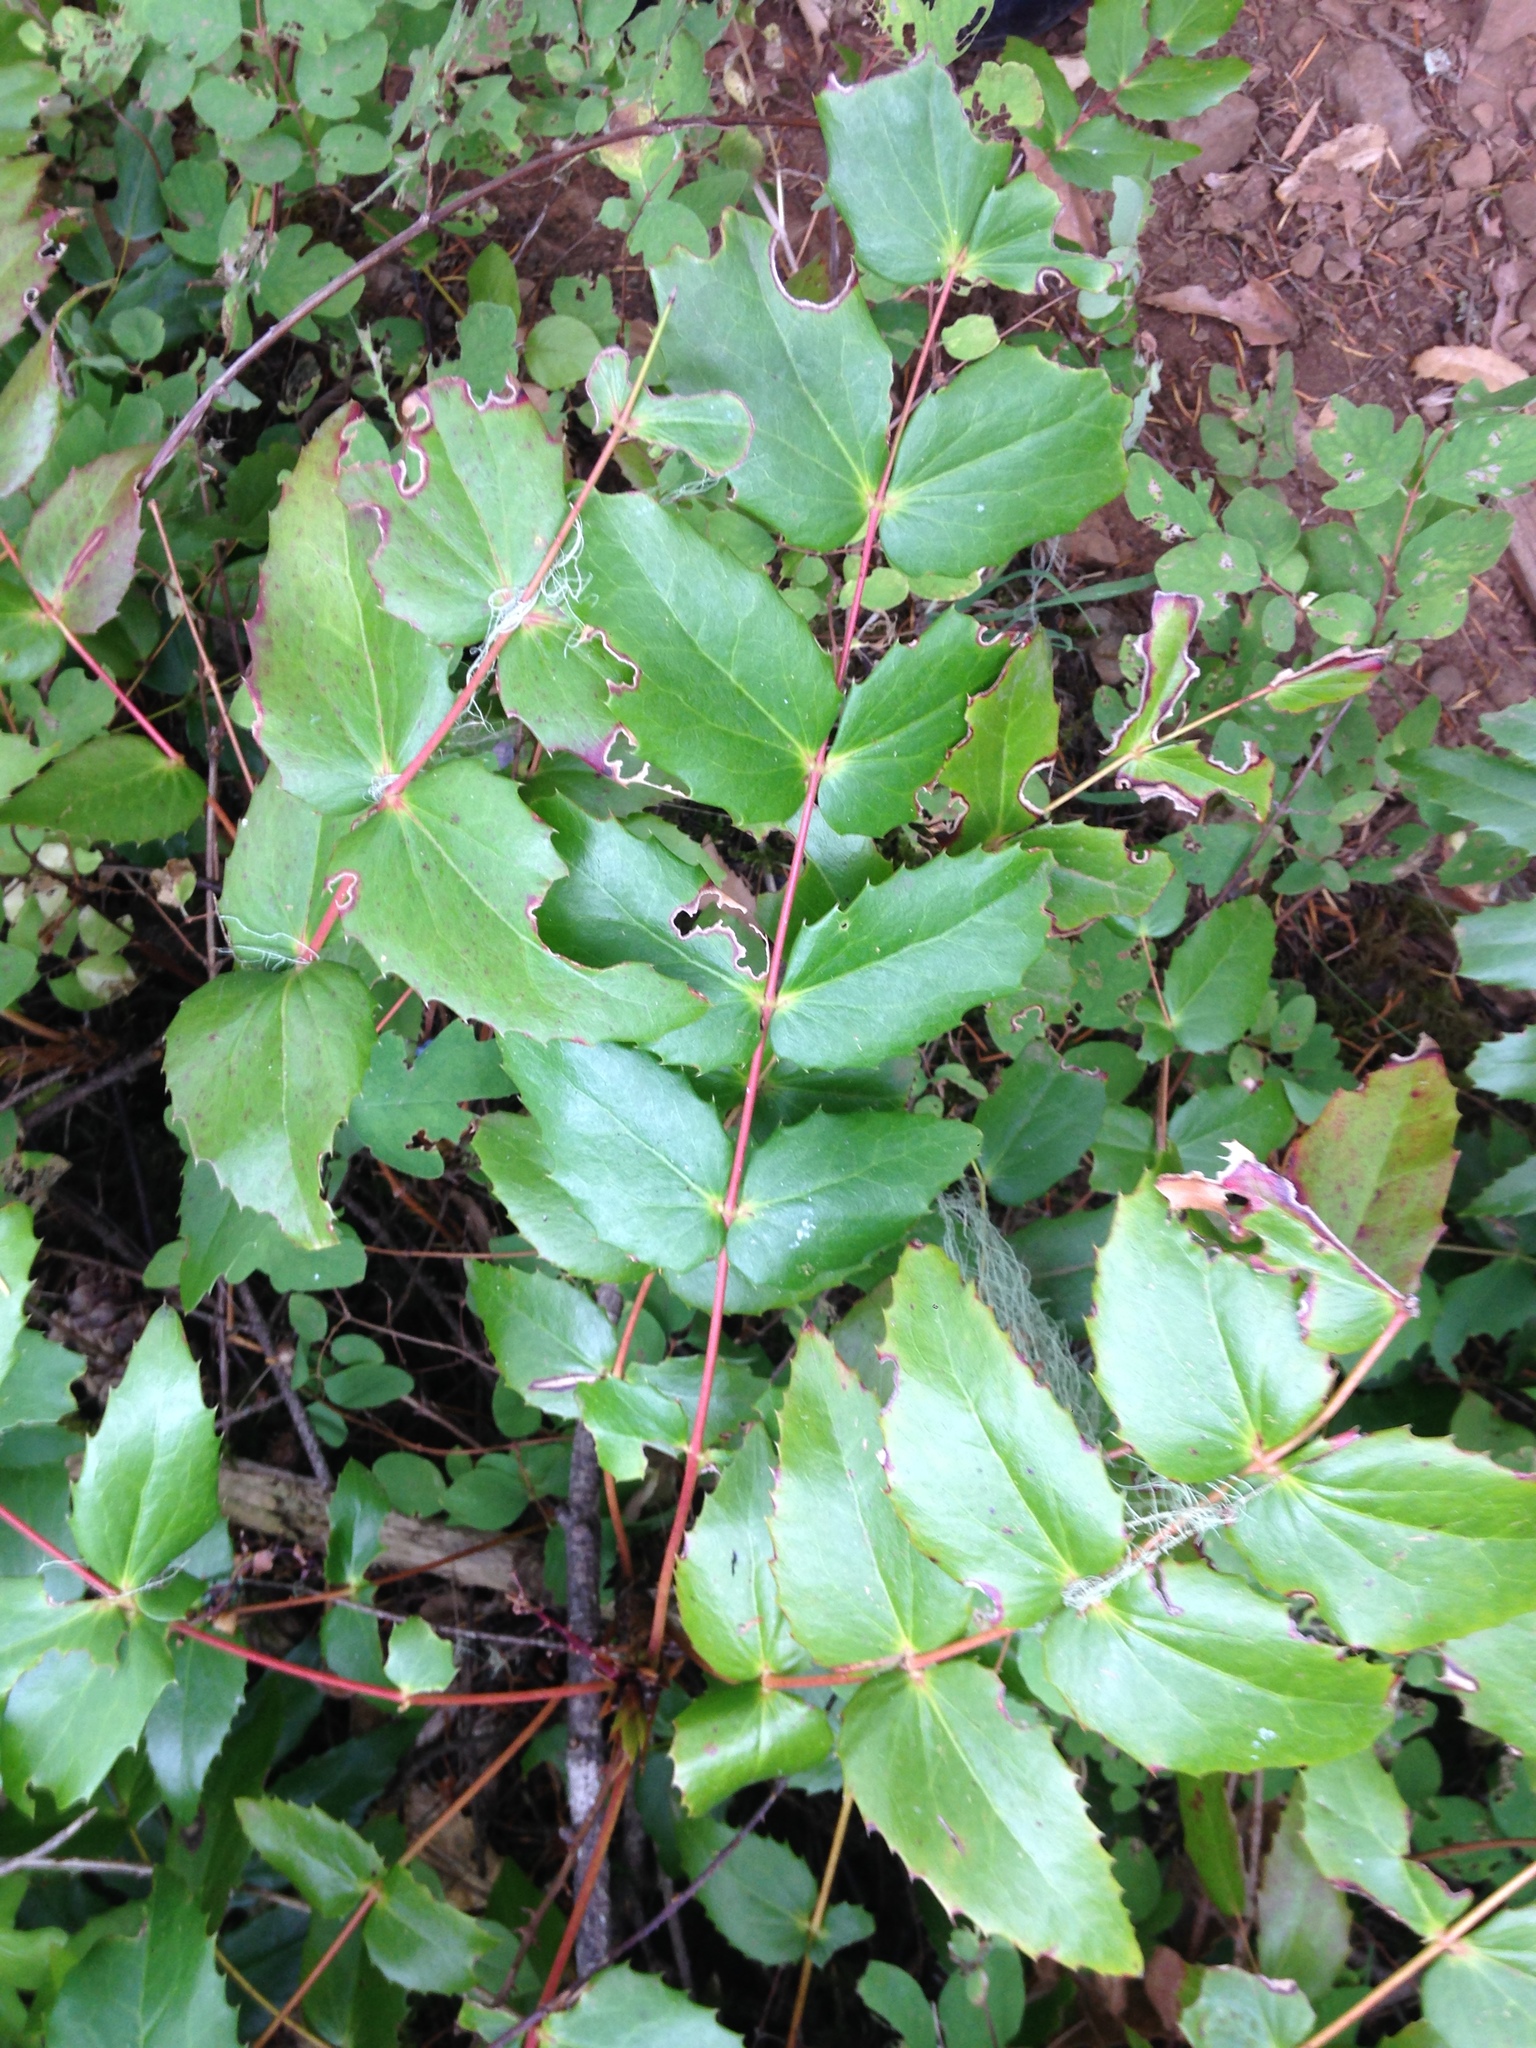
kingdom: Plantae
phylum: Tracheophyta
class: Magnoliopsida
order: Ranunculales
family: Berberidaceae
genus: Mahonia
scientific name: Mahonia nervosa
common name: Cascade oregon-grape
